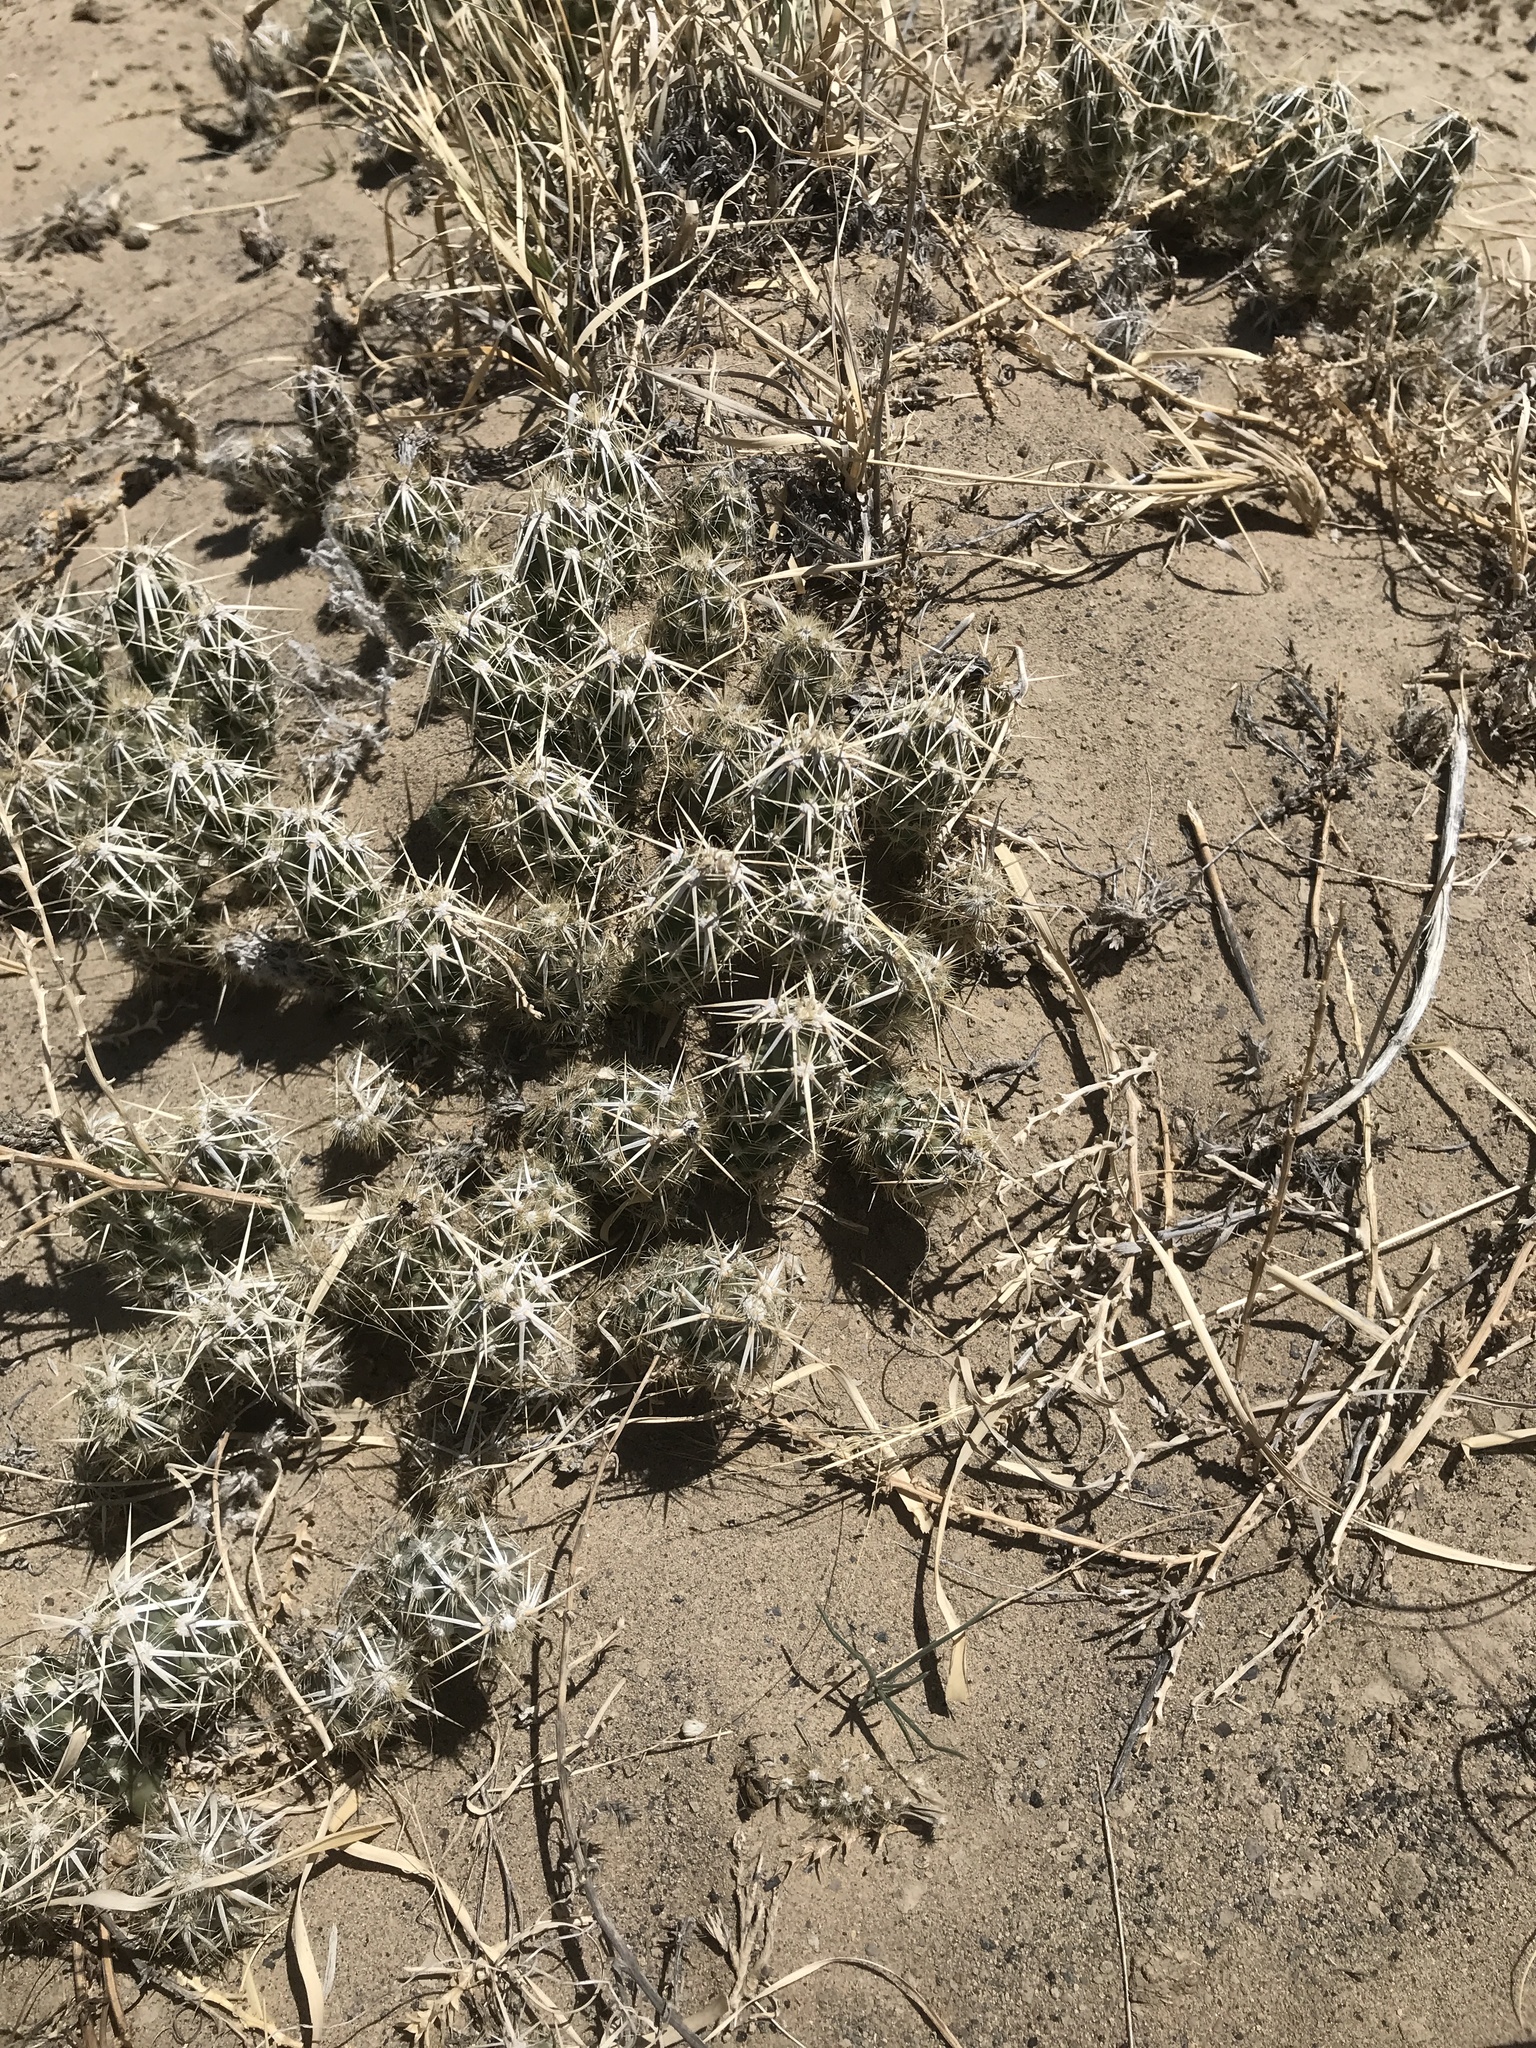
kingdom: Plantae
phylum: Tracheophyta
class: Magnoliopsida
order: Caryophyllales
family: Cactaceae
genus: Grusonia
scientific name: Grusonia clavata
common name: Club cholla
